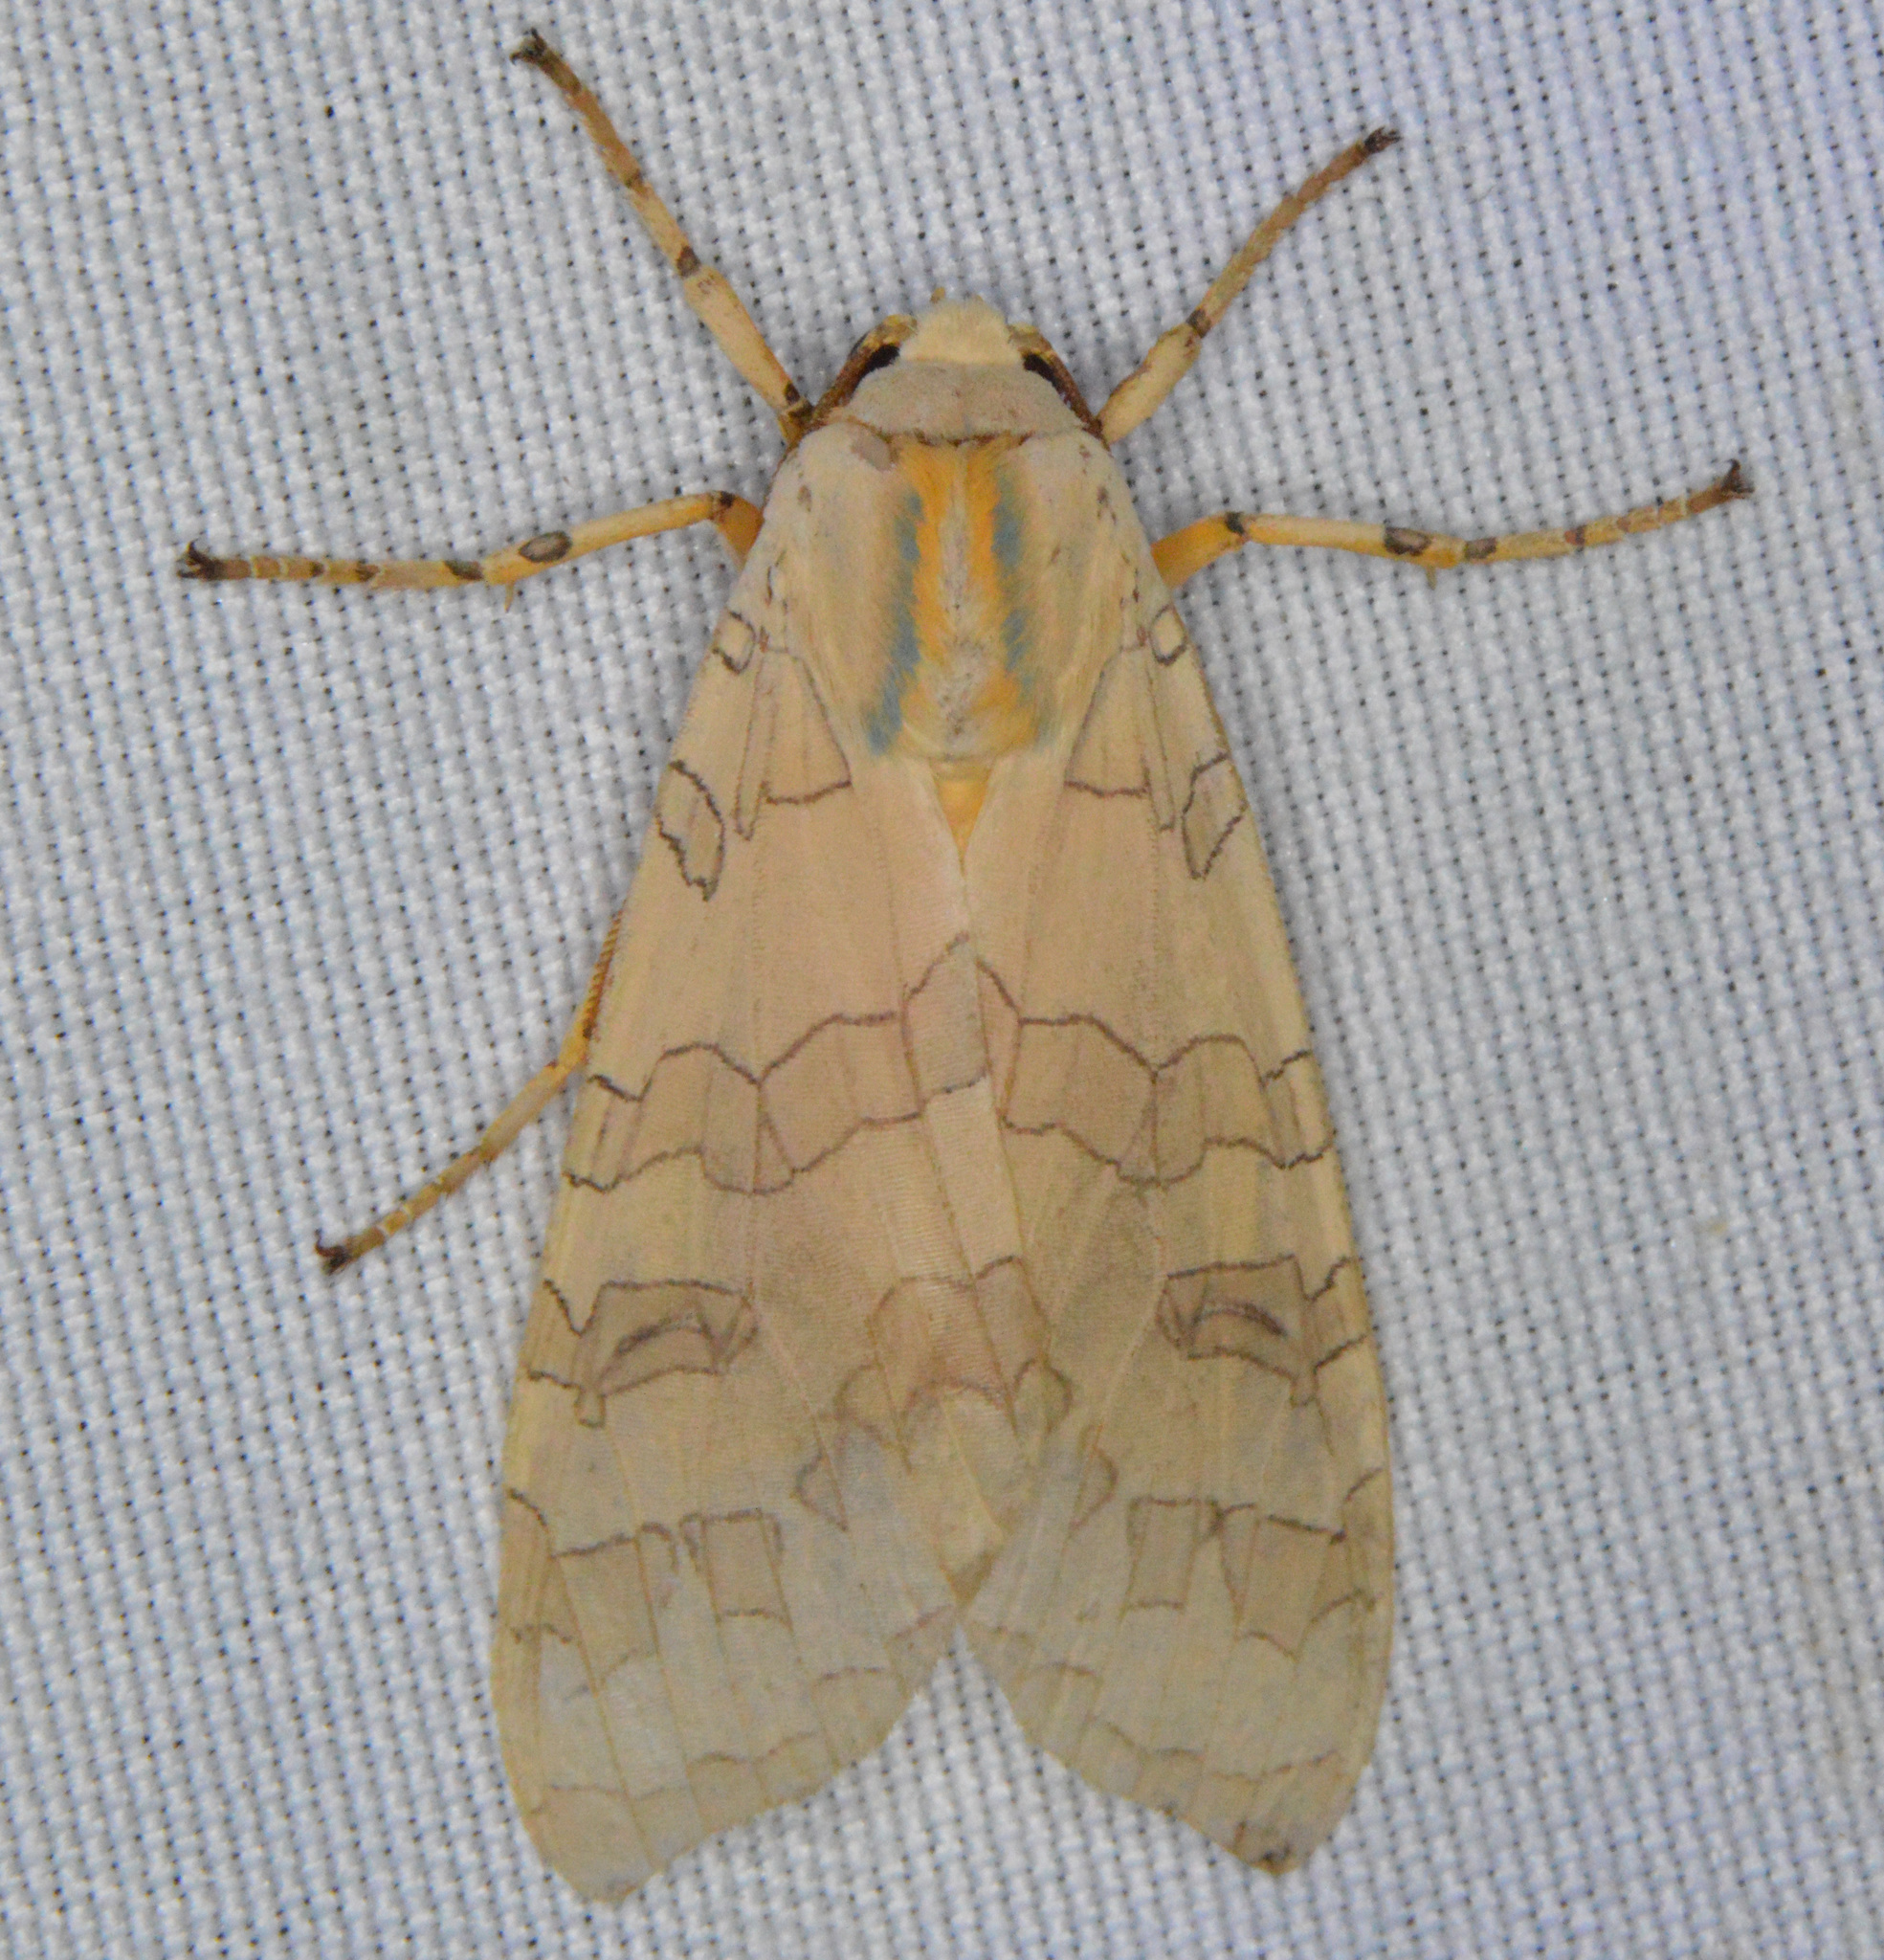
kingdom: Animalia
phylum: Arthropoda
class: Insecta
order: Lepidoptera
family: Erebidae
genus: Halysidota
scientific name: Halysidota tessellaris
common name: Banded tussock moth
